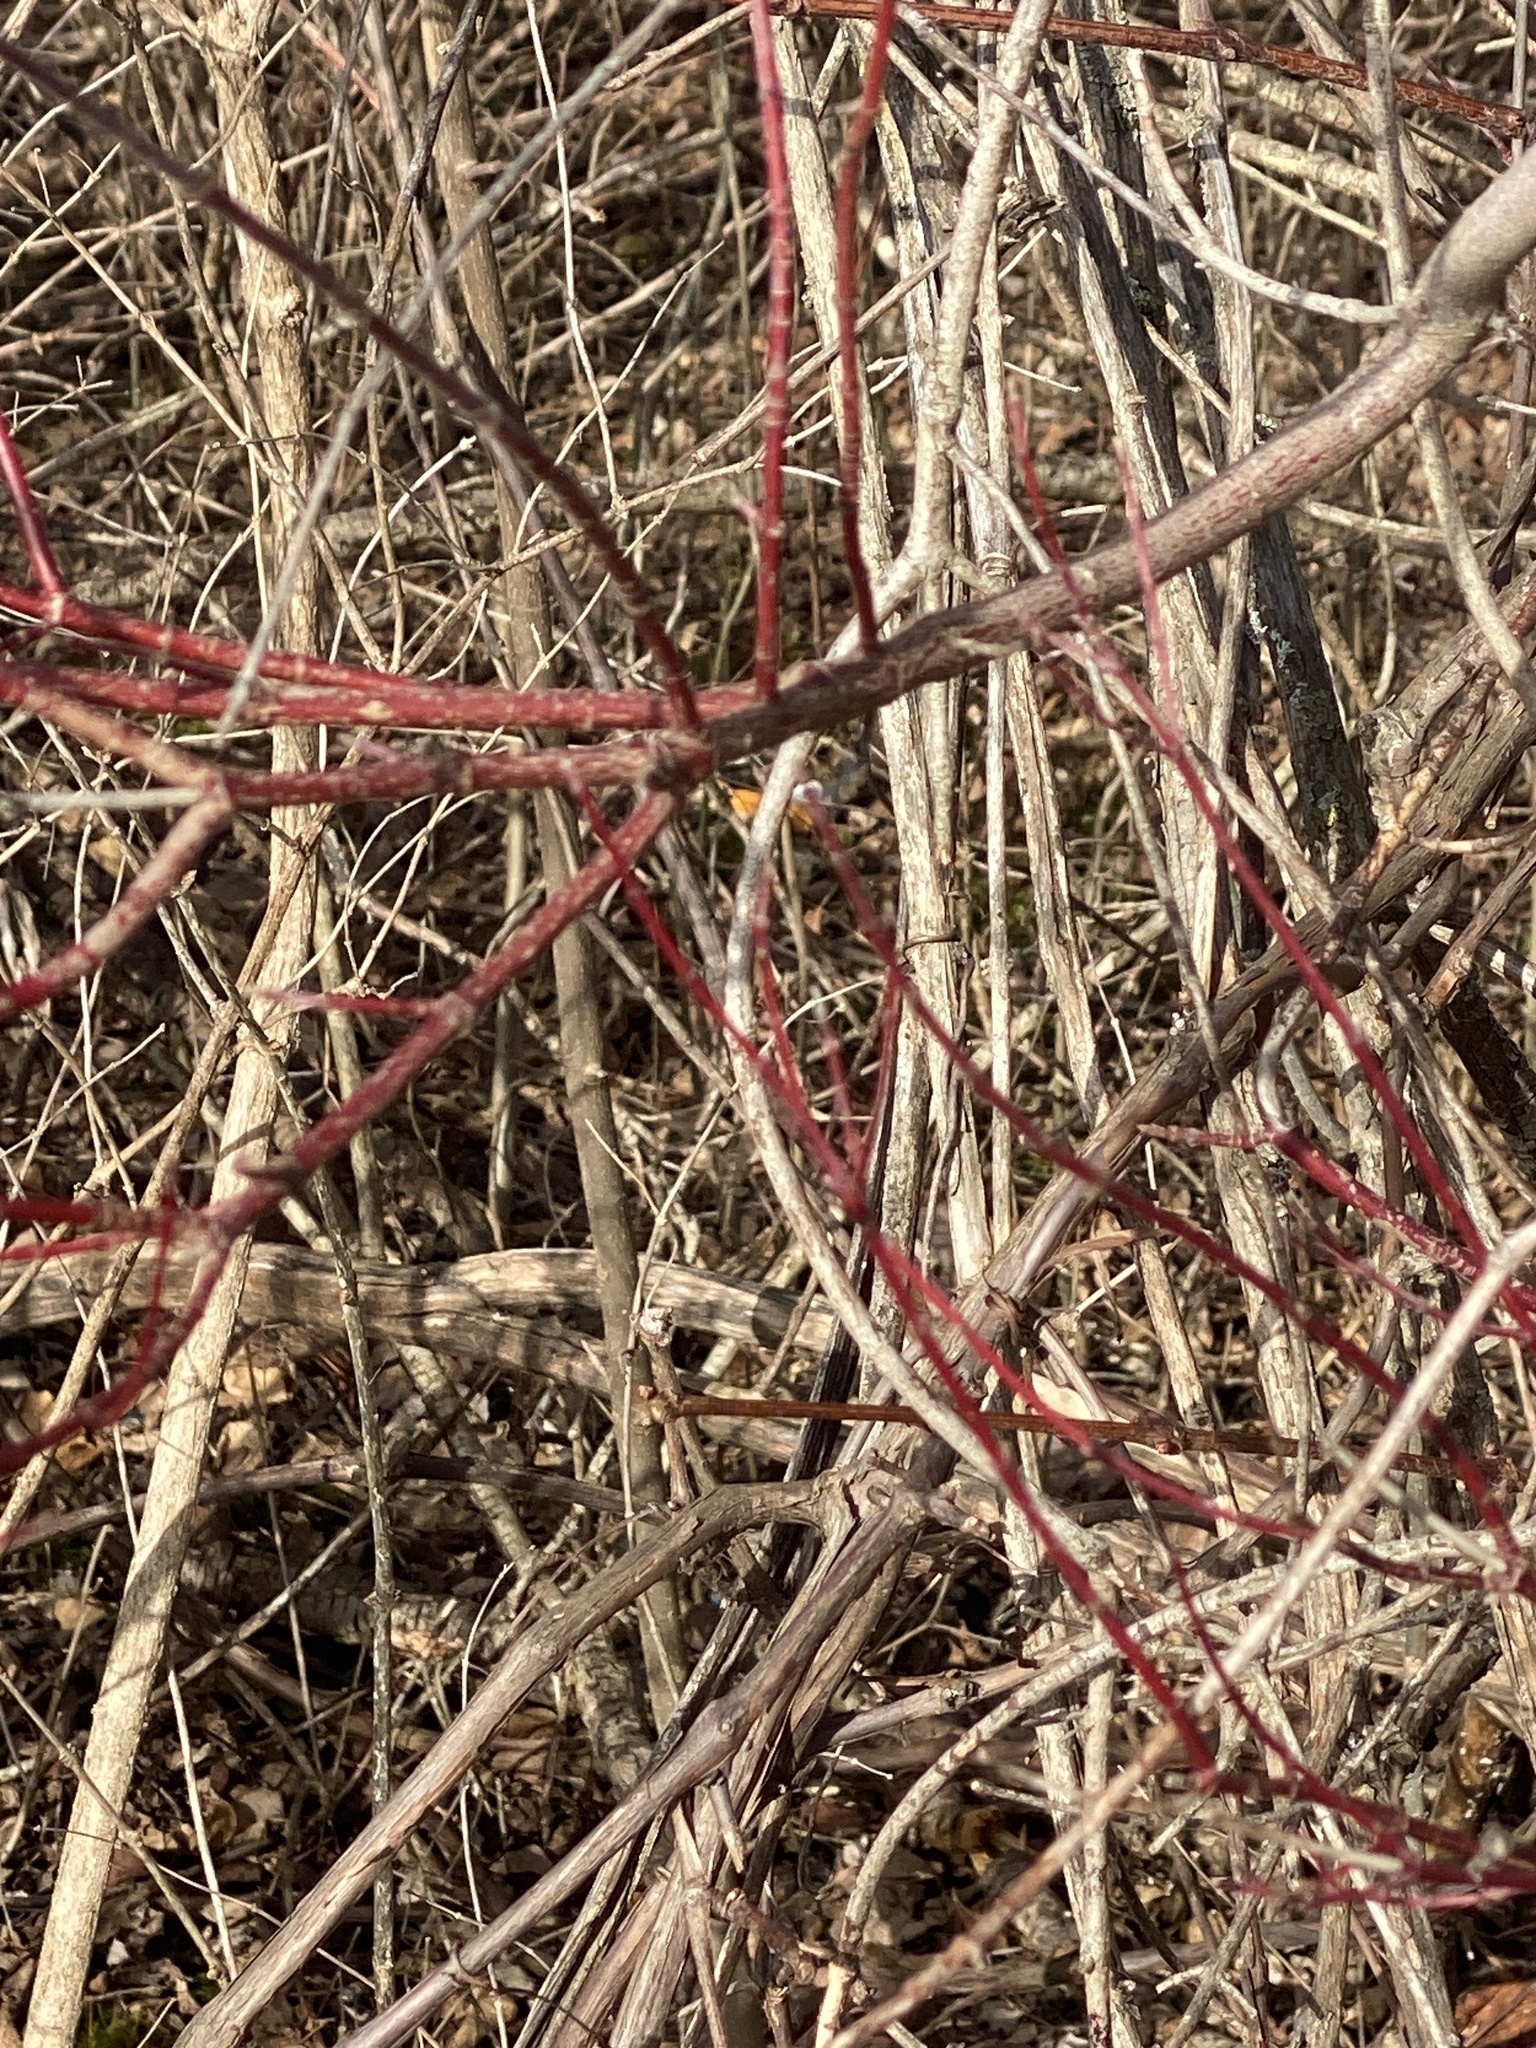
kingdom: Plantae
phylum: Tracheophyta
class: Magnoliopsida
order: Cornales
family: Cornaceae
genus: Cornus
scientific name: Cornus amomum
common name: Silky dogwood
